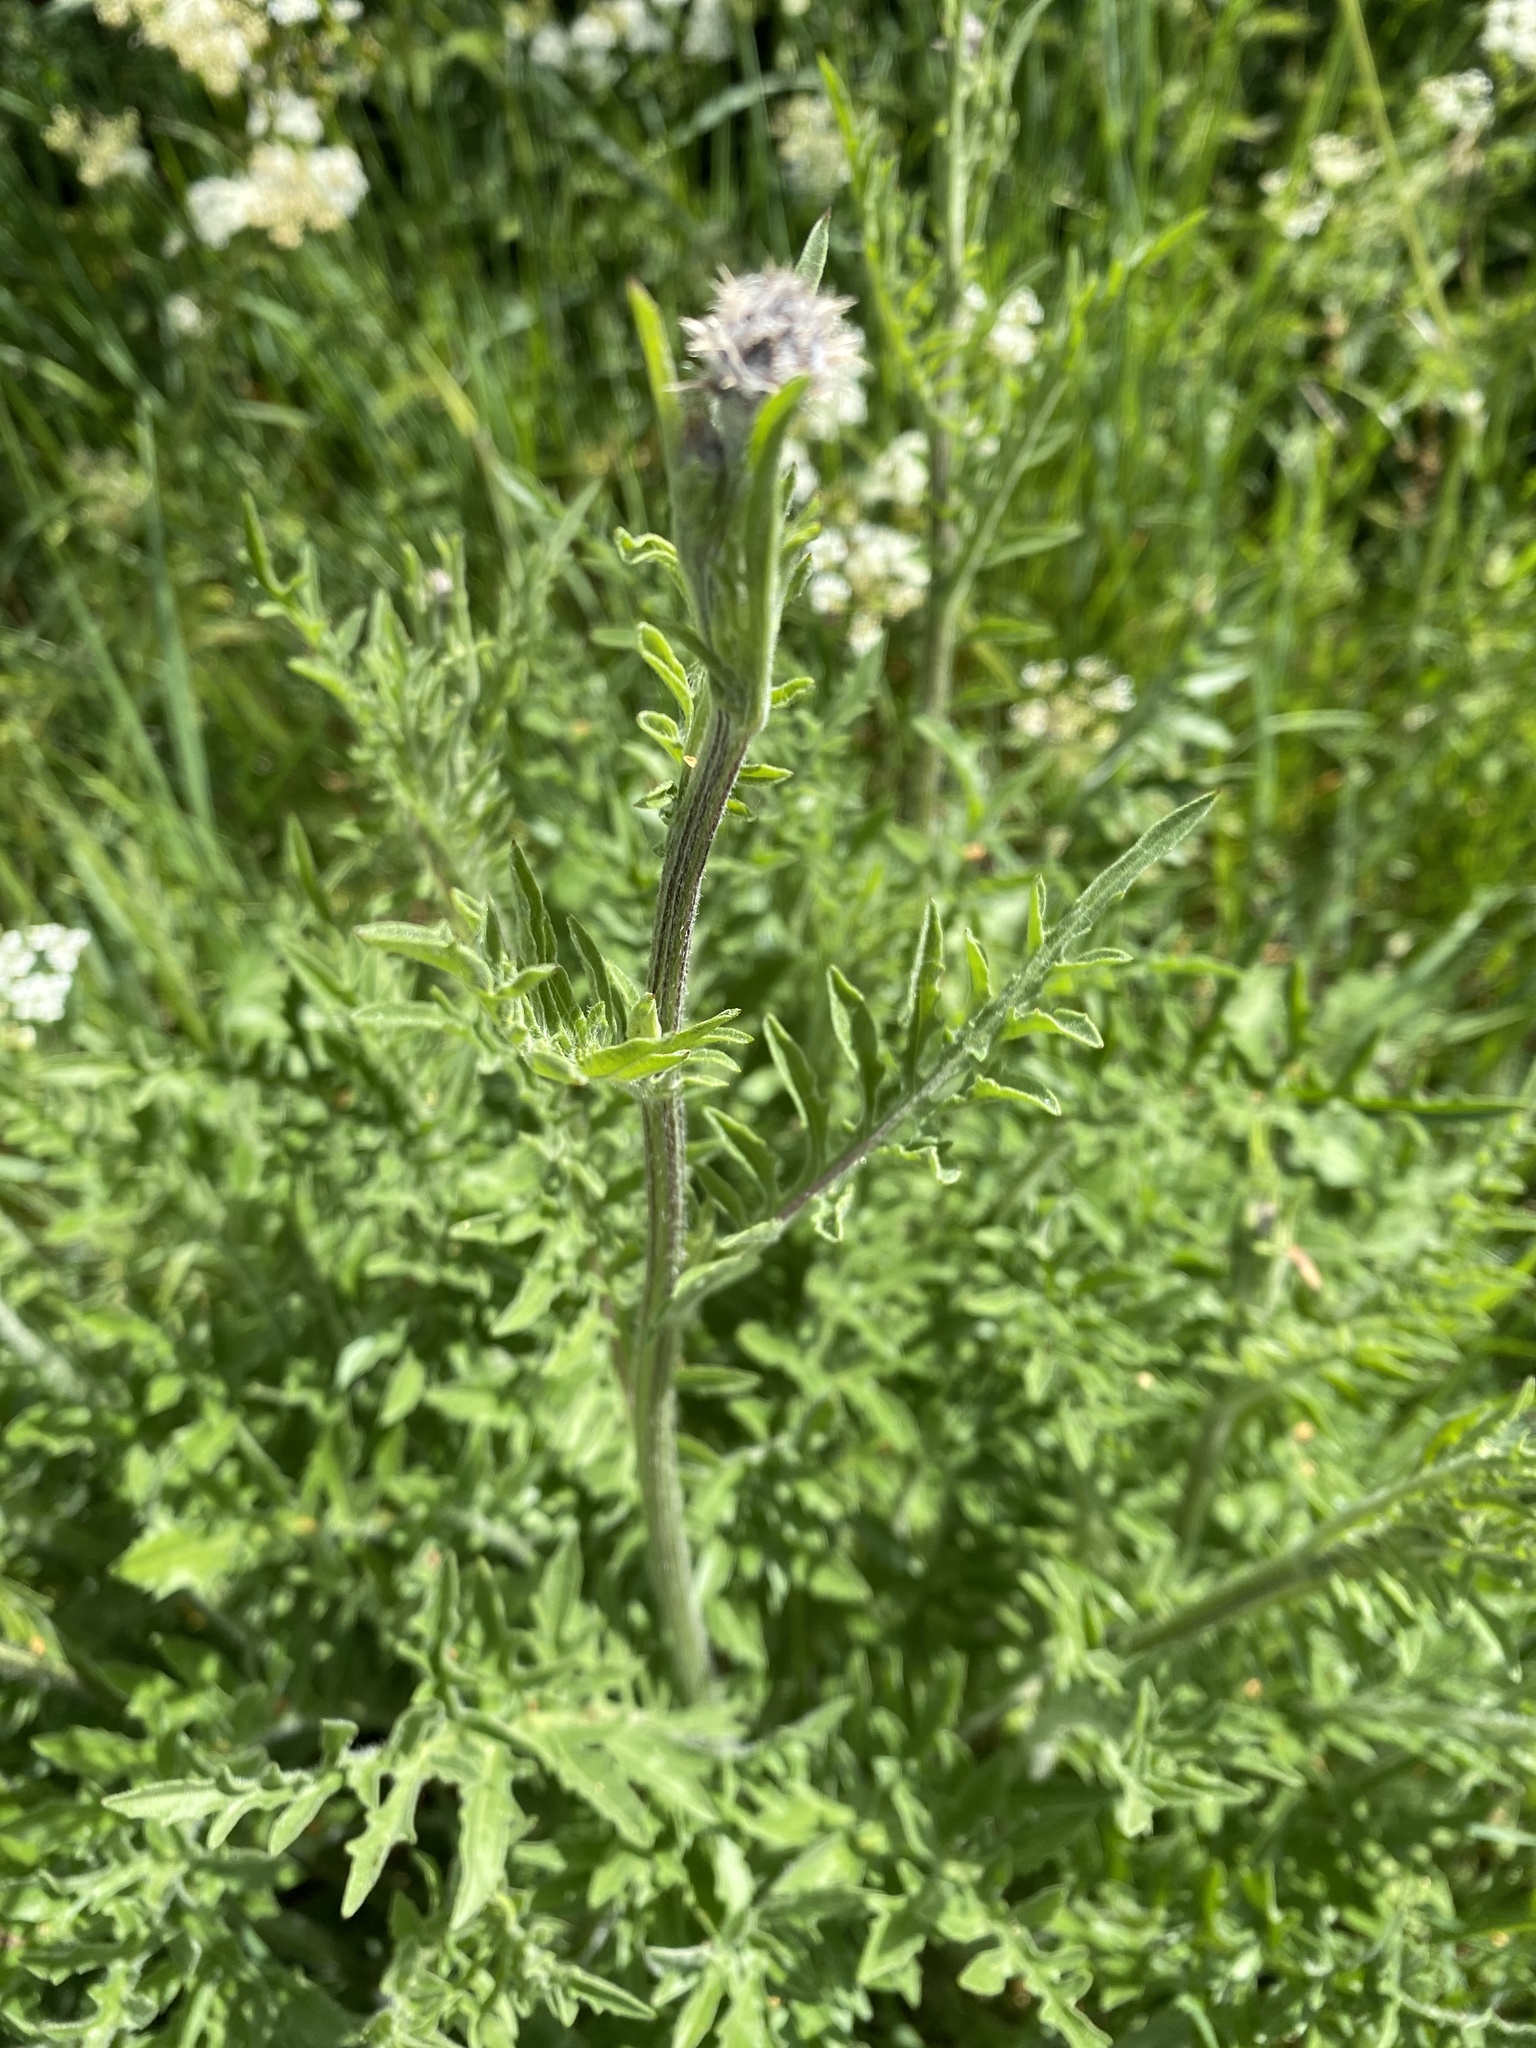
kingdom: Plantae
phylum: Tracheophyta
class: Magnoliopsida
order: Asterales
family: Asteraceae
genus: Centaurea
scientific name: Centaurea scabiosa
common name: Greater knapweed
